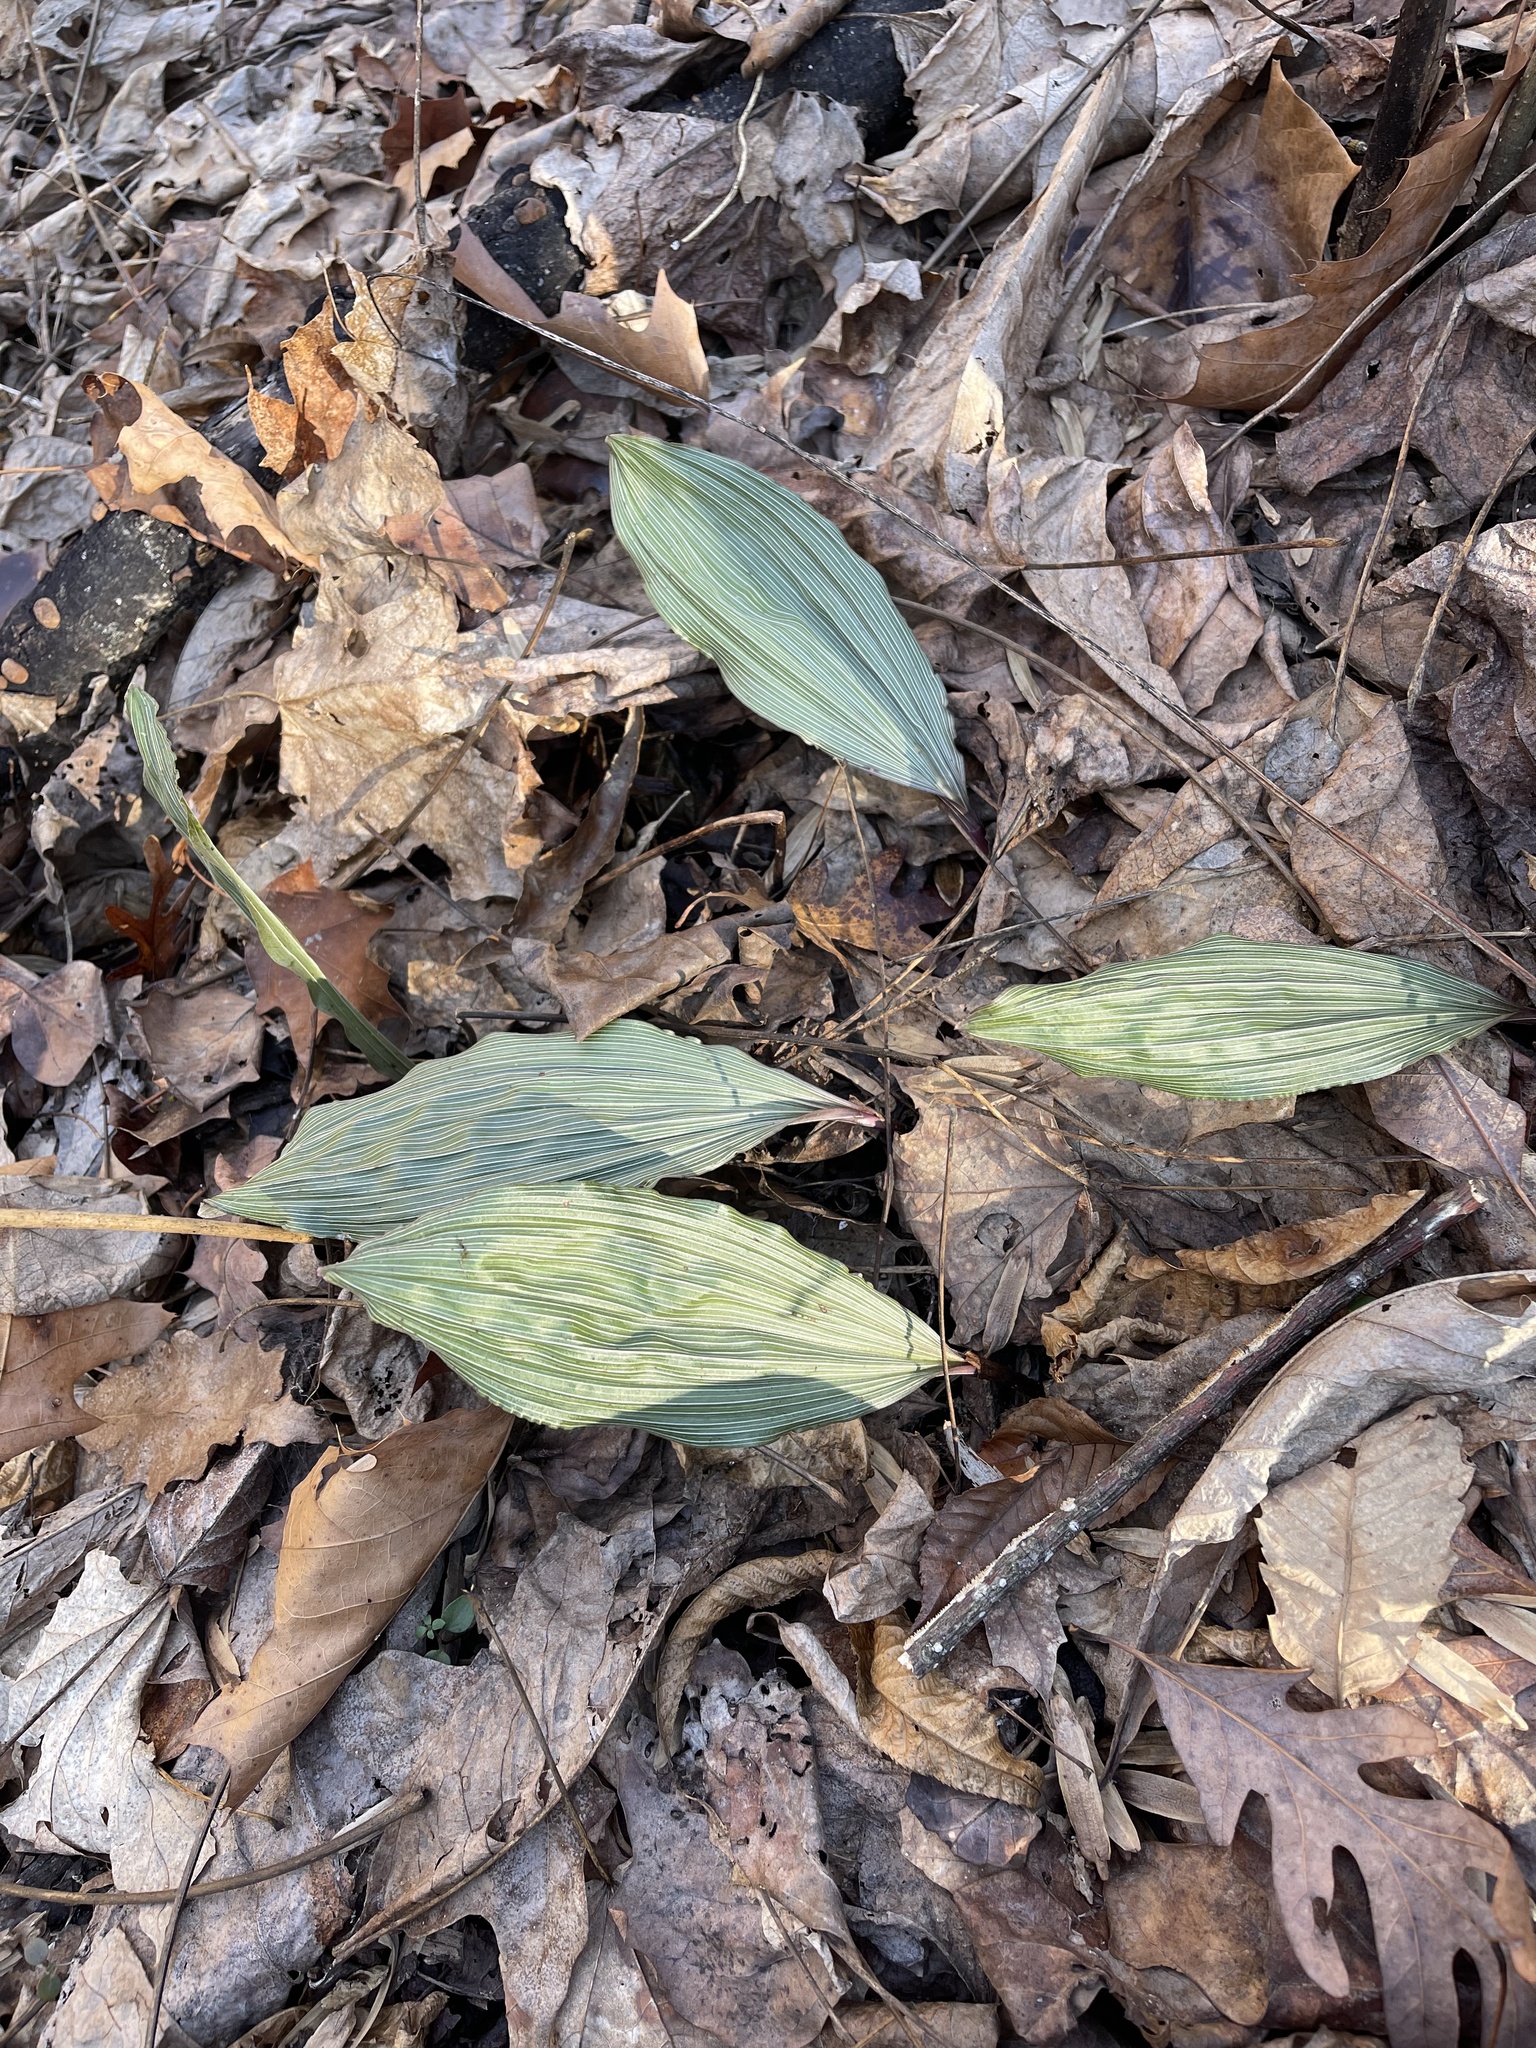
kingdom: Plantae
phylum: Tracheophyta
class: Liliopsida
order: Asparagales
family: Orchidaceae
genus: Aplectrum
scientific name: Aplectrum hyemale
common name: Adam-and-eve
